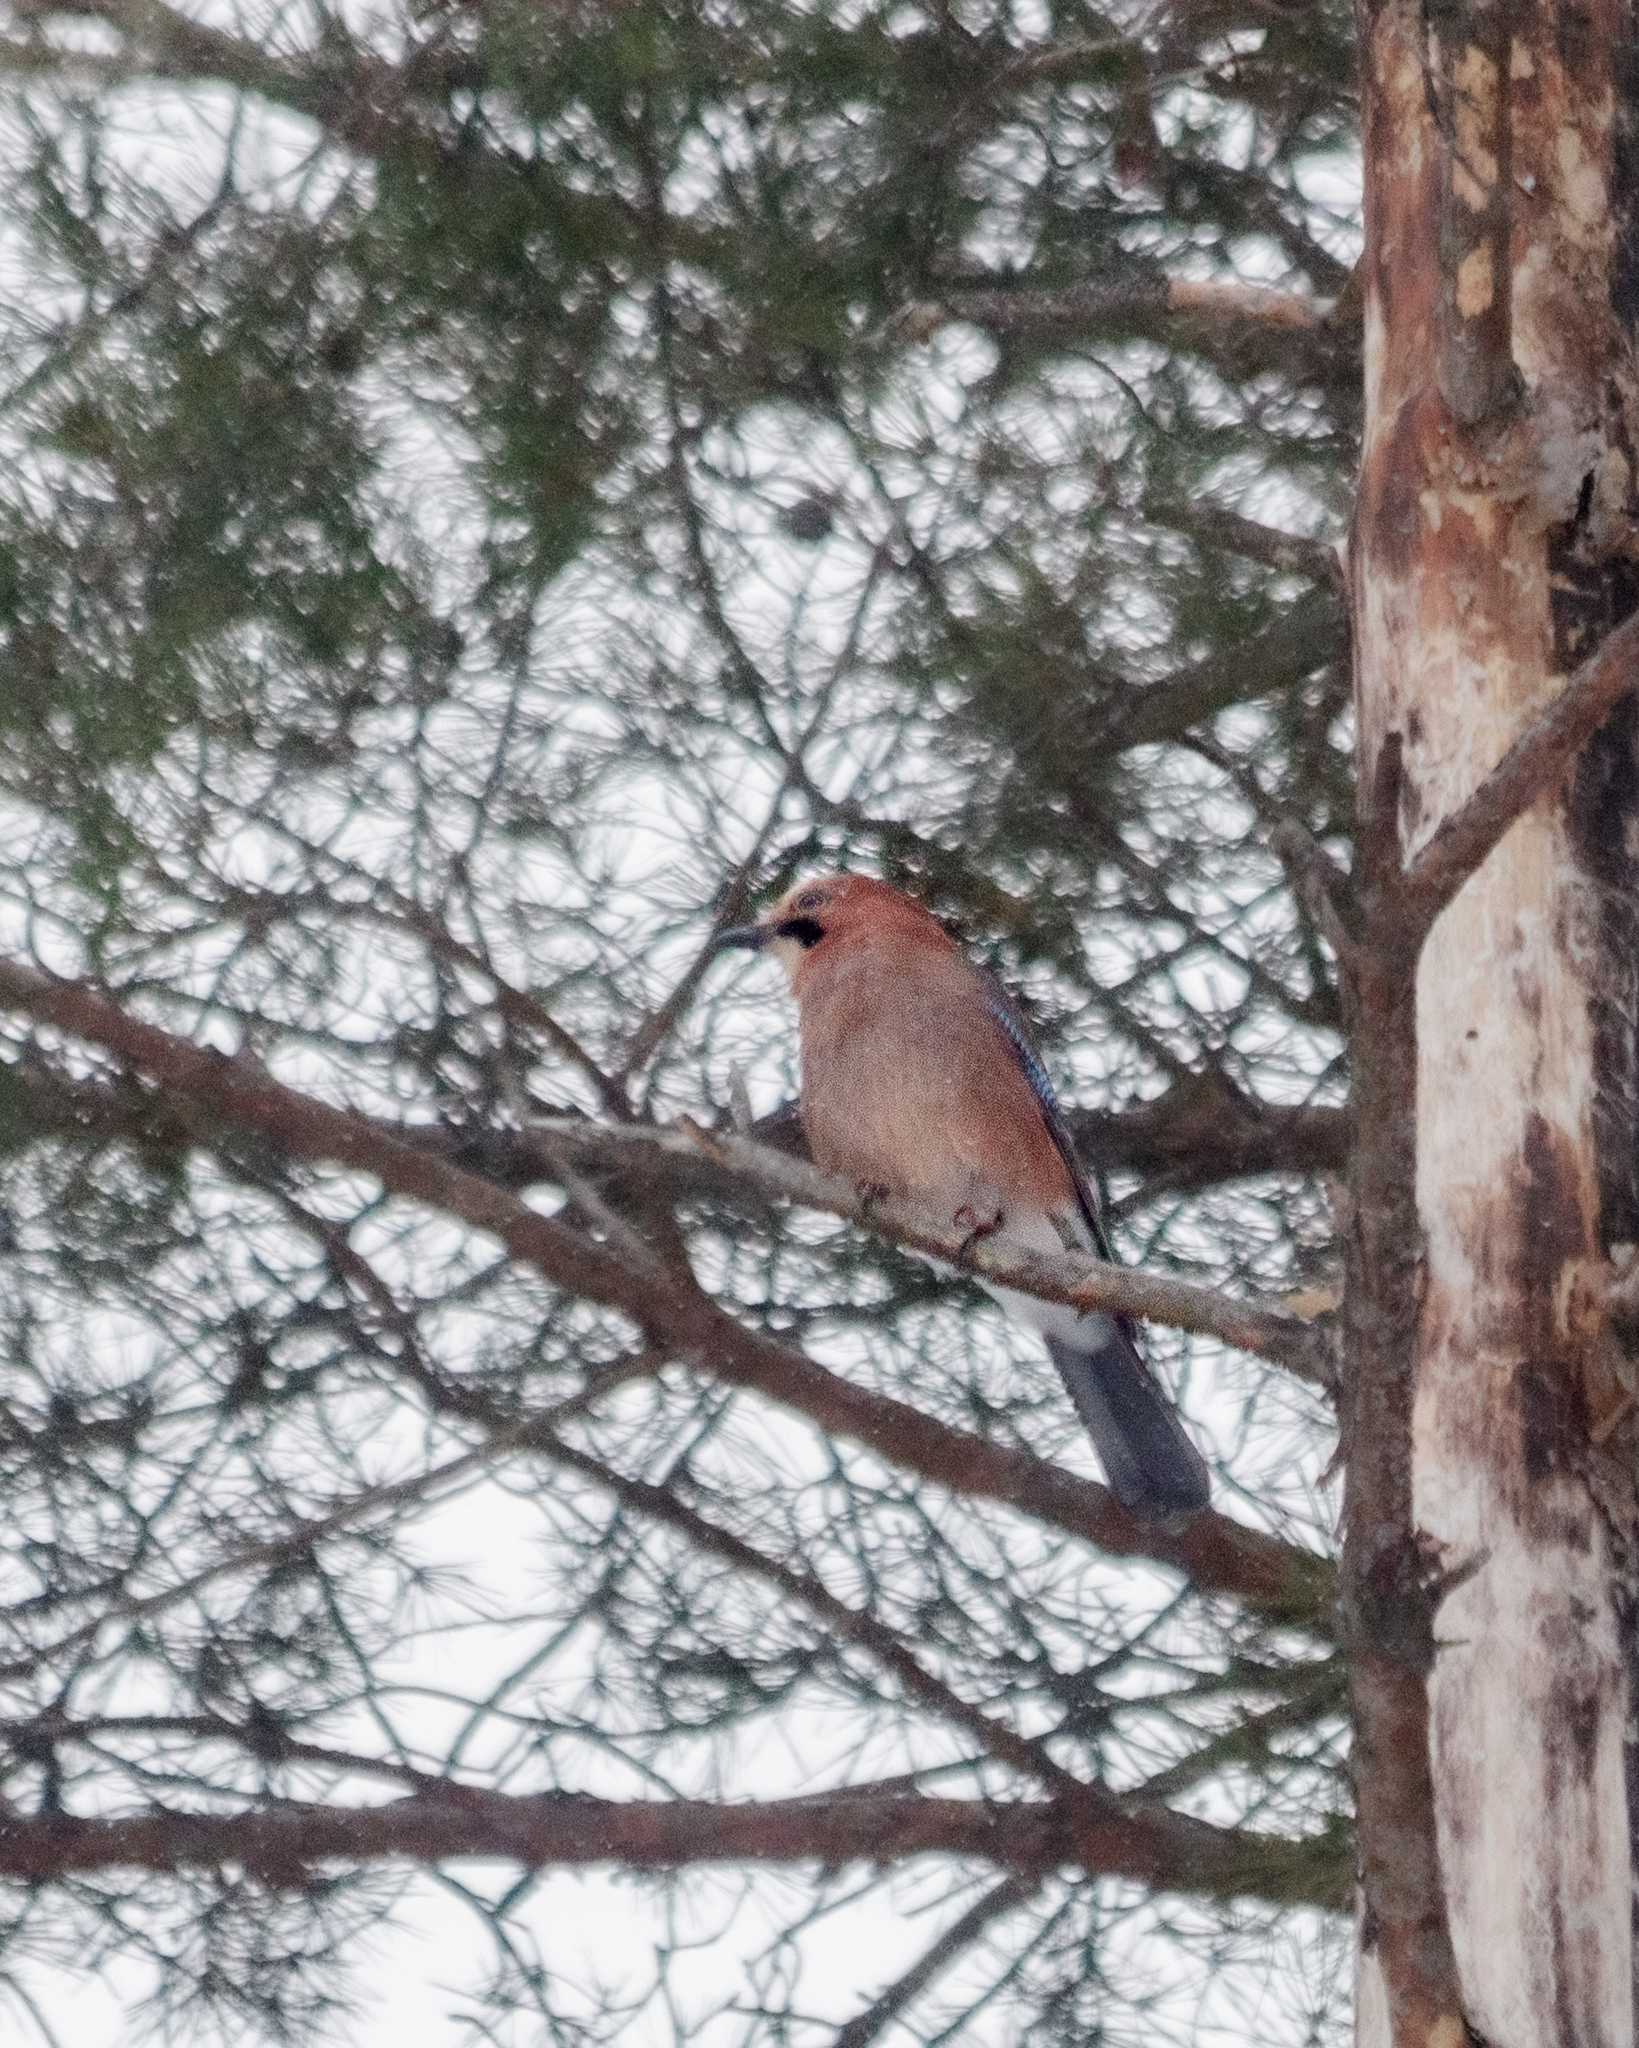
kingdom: Animalia
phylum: Chordata
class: Aves
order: Passeriformes
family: Corvidae
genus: Garrulus
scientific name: Garrulus glandarius
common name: Eurasian jay
